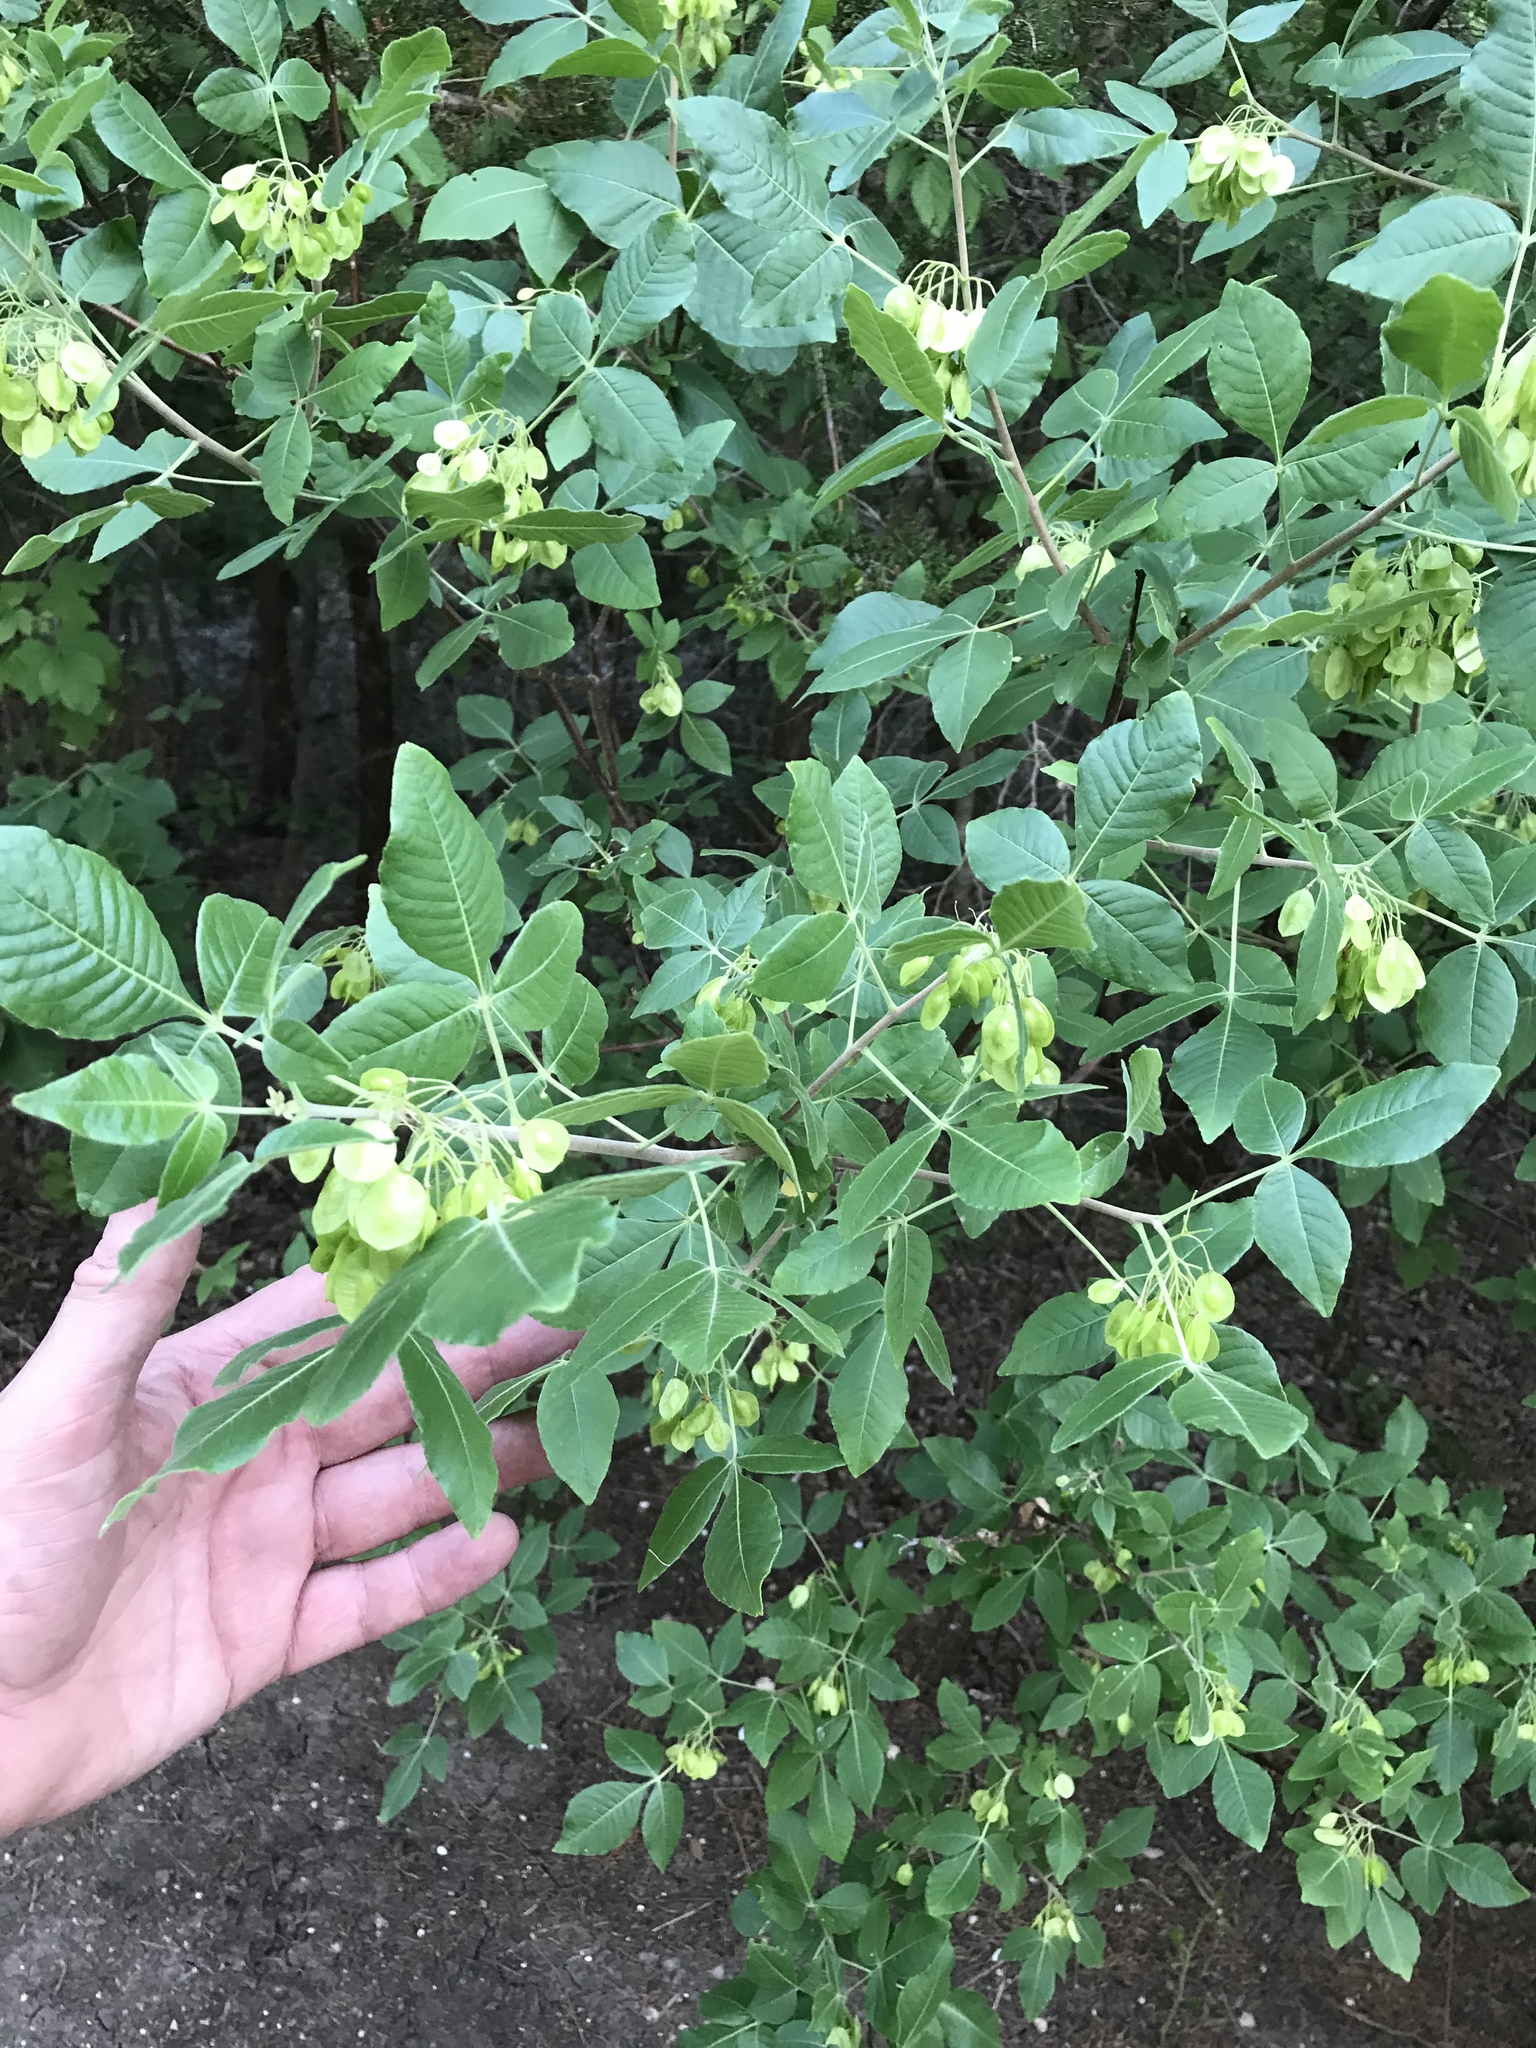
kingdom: Plantae
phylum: Tracheophyta
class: Magnoliopsida
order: Sapindales
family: Rutaceae
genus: Ptelea
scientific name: Ptelea trifoliata
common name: Common hop-tree
